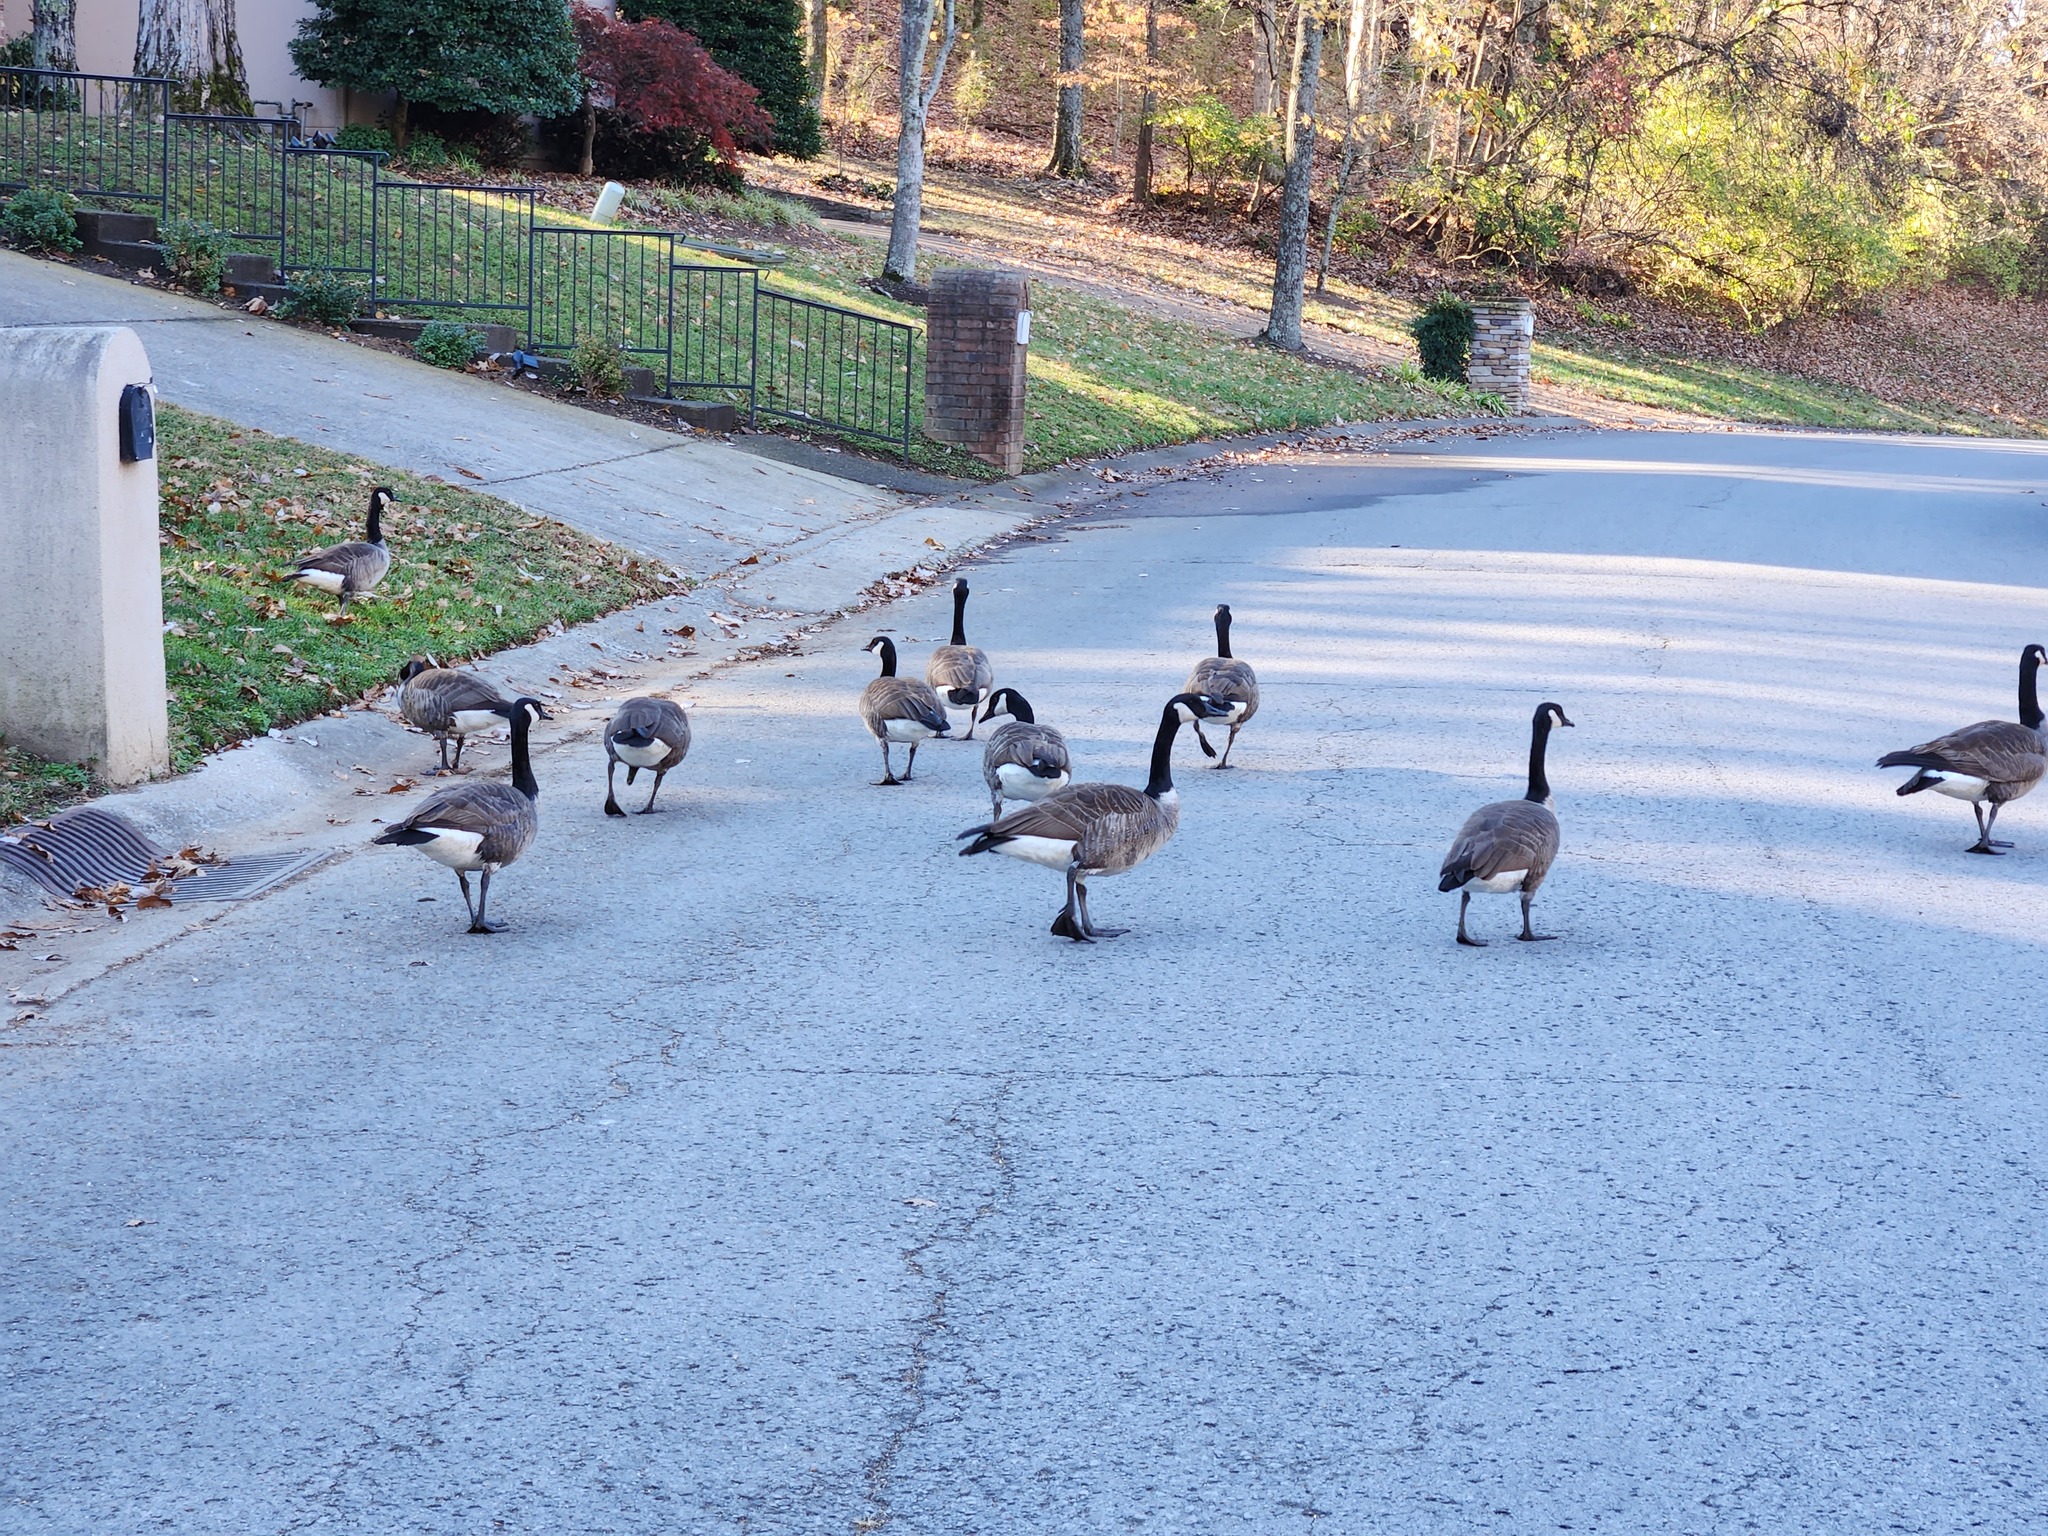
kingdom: Animalia
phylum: Chordata
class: Aves
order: Anseriformes
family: Anatidae
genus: Branta
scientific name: Branta canadensis
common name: Canada goose
